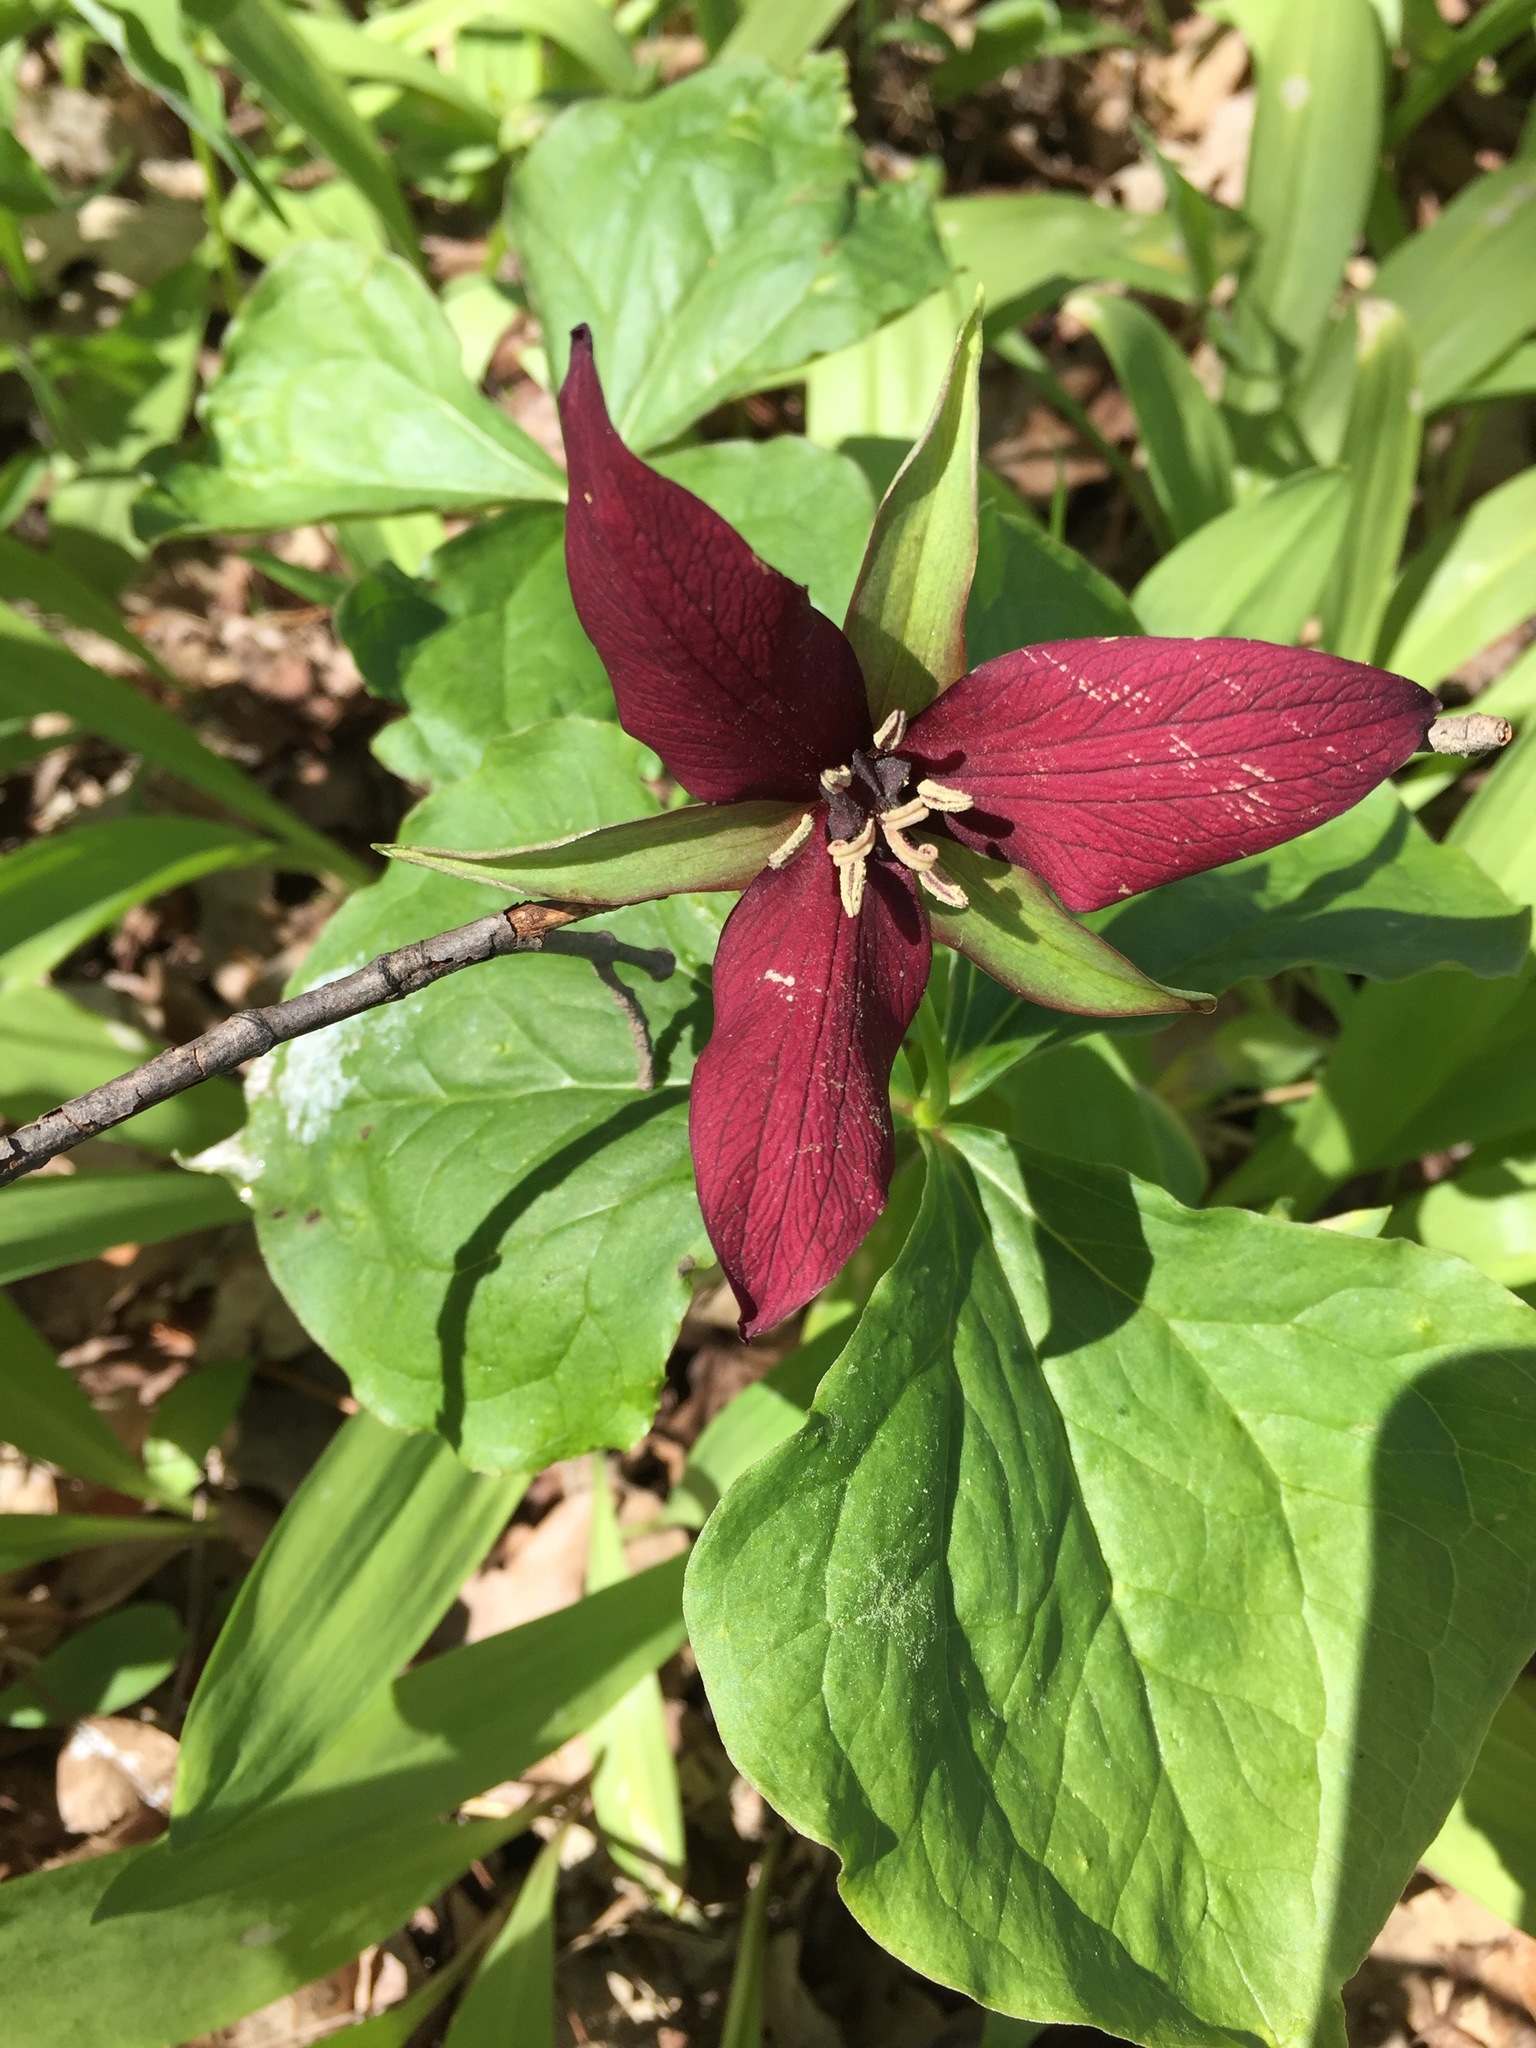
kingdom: Plantae
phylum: Tracheophyta
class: Liliopsida
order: Liliales
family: Melanthiaceae
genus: Trillium
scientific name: Trillium erectum
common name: Purple trillium
